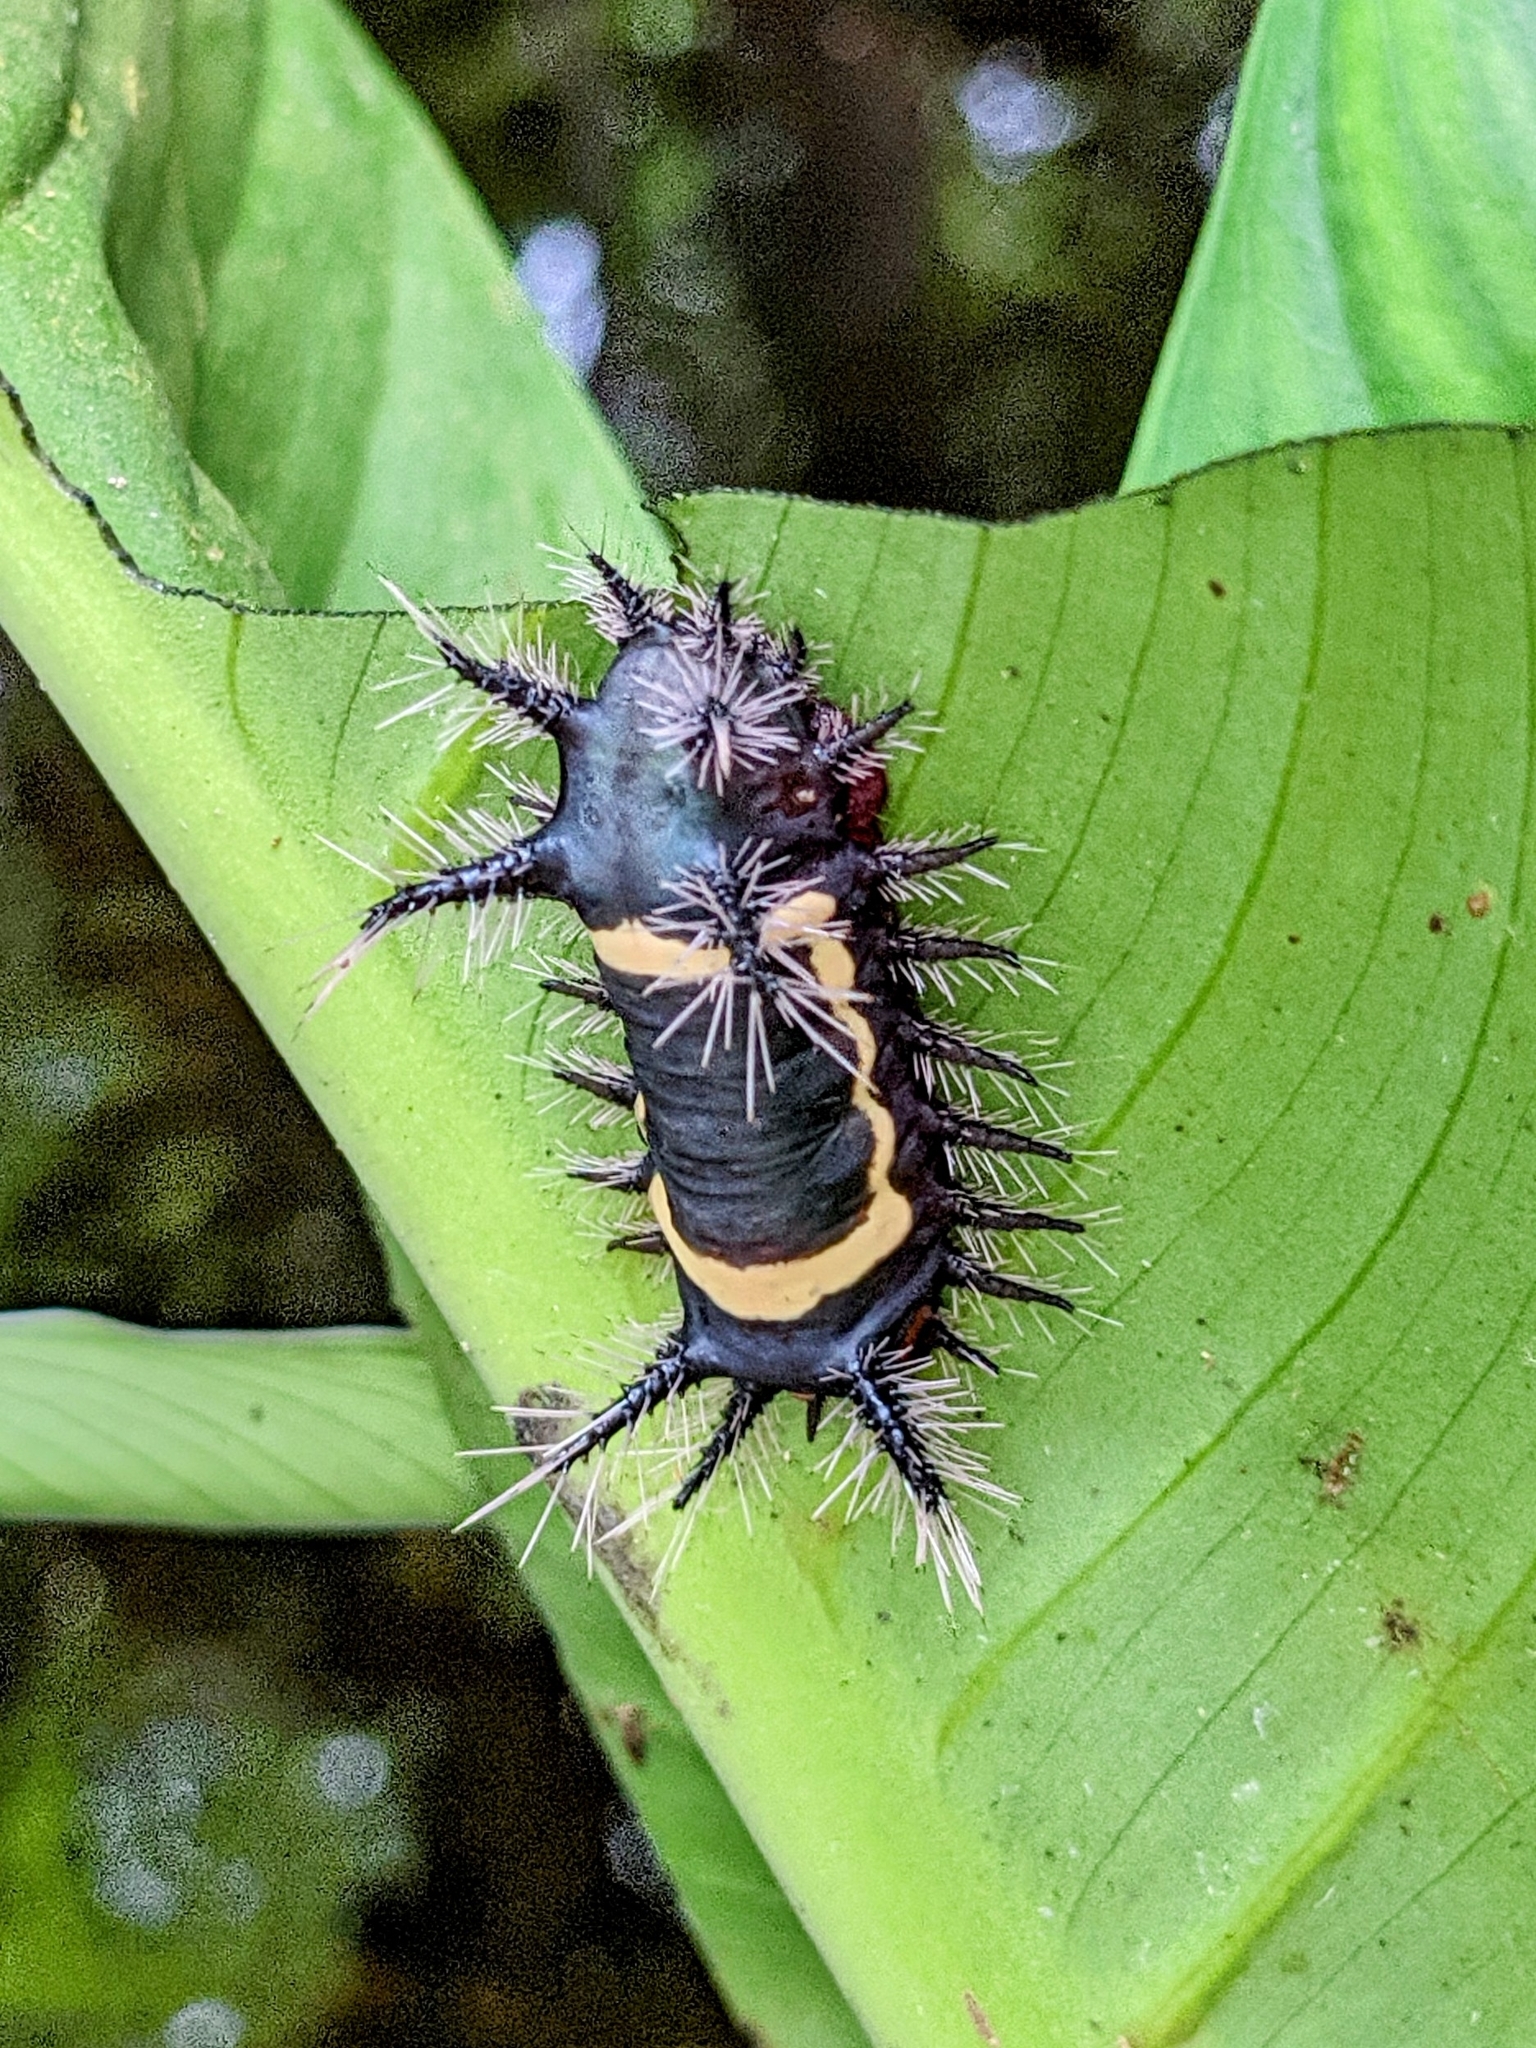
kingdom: Animalia
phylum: Arthropoda
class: Insecta
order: Lepidoptera
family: Limacodidae
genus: Sibine
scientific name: Sibine nesea
